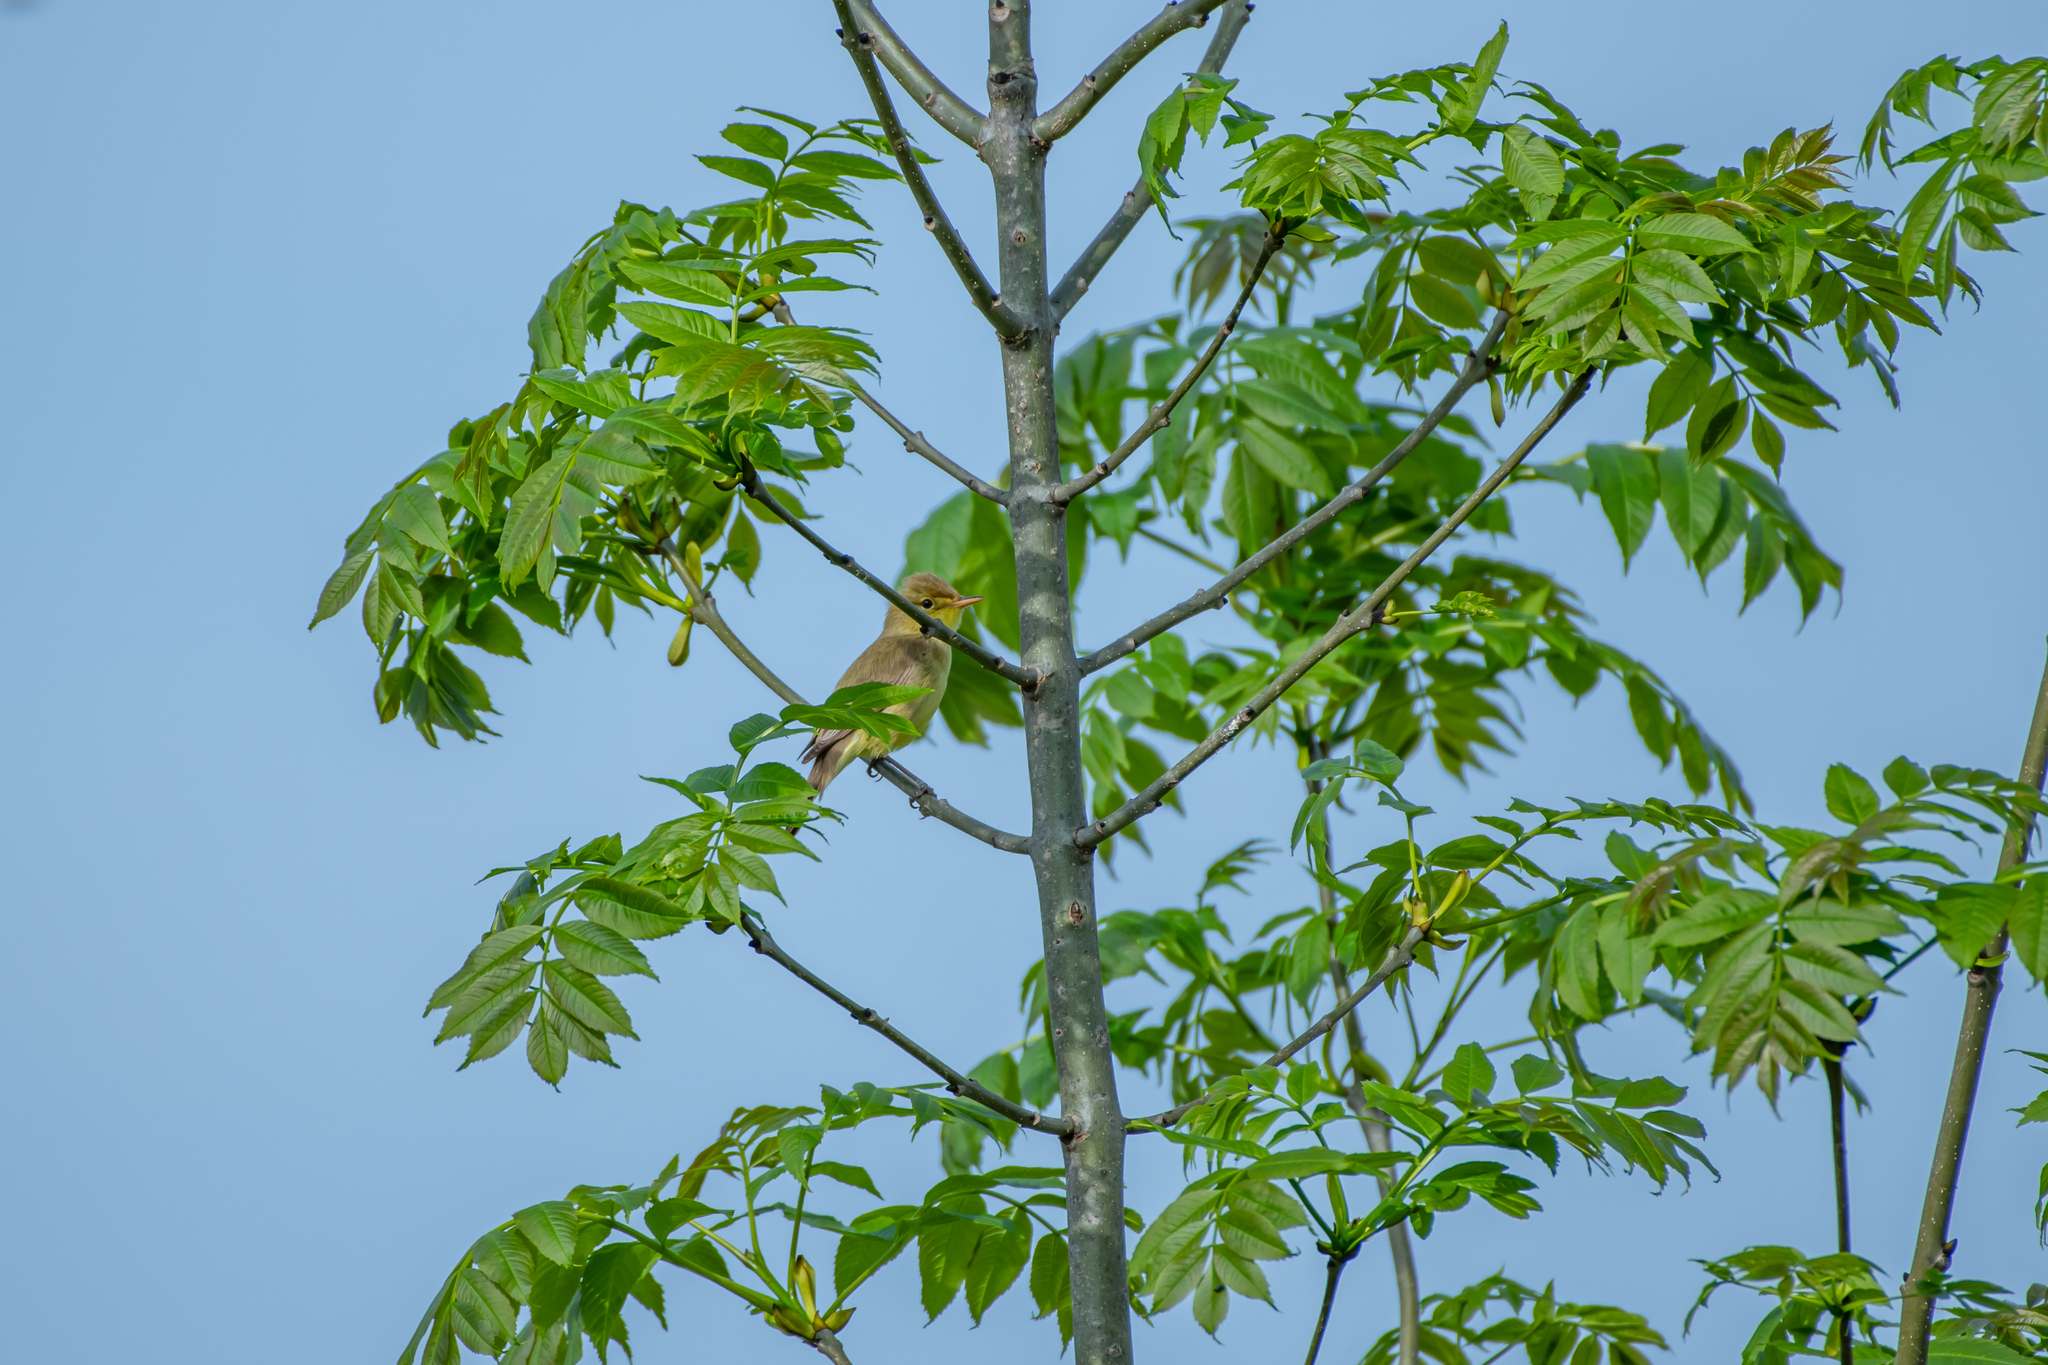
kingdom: Animalia
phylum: Chordata
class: Aves
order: Passeriformes
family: Acrocephalidae
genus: Hippolais
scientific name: Hippolais polyglotta
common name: Melodious warbler
